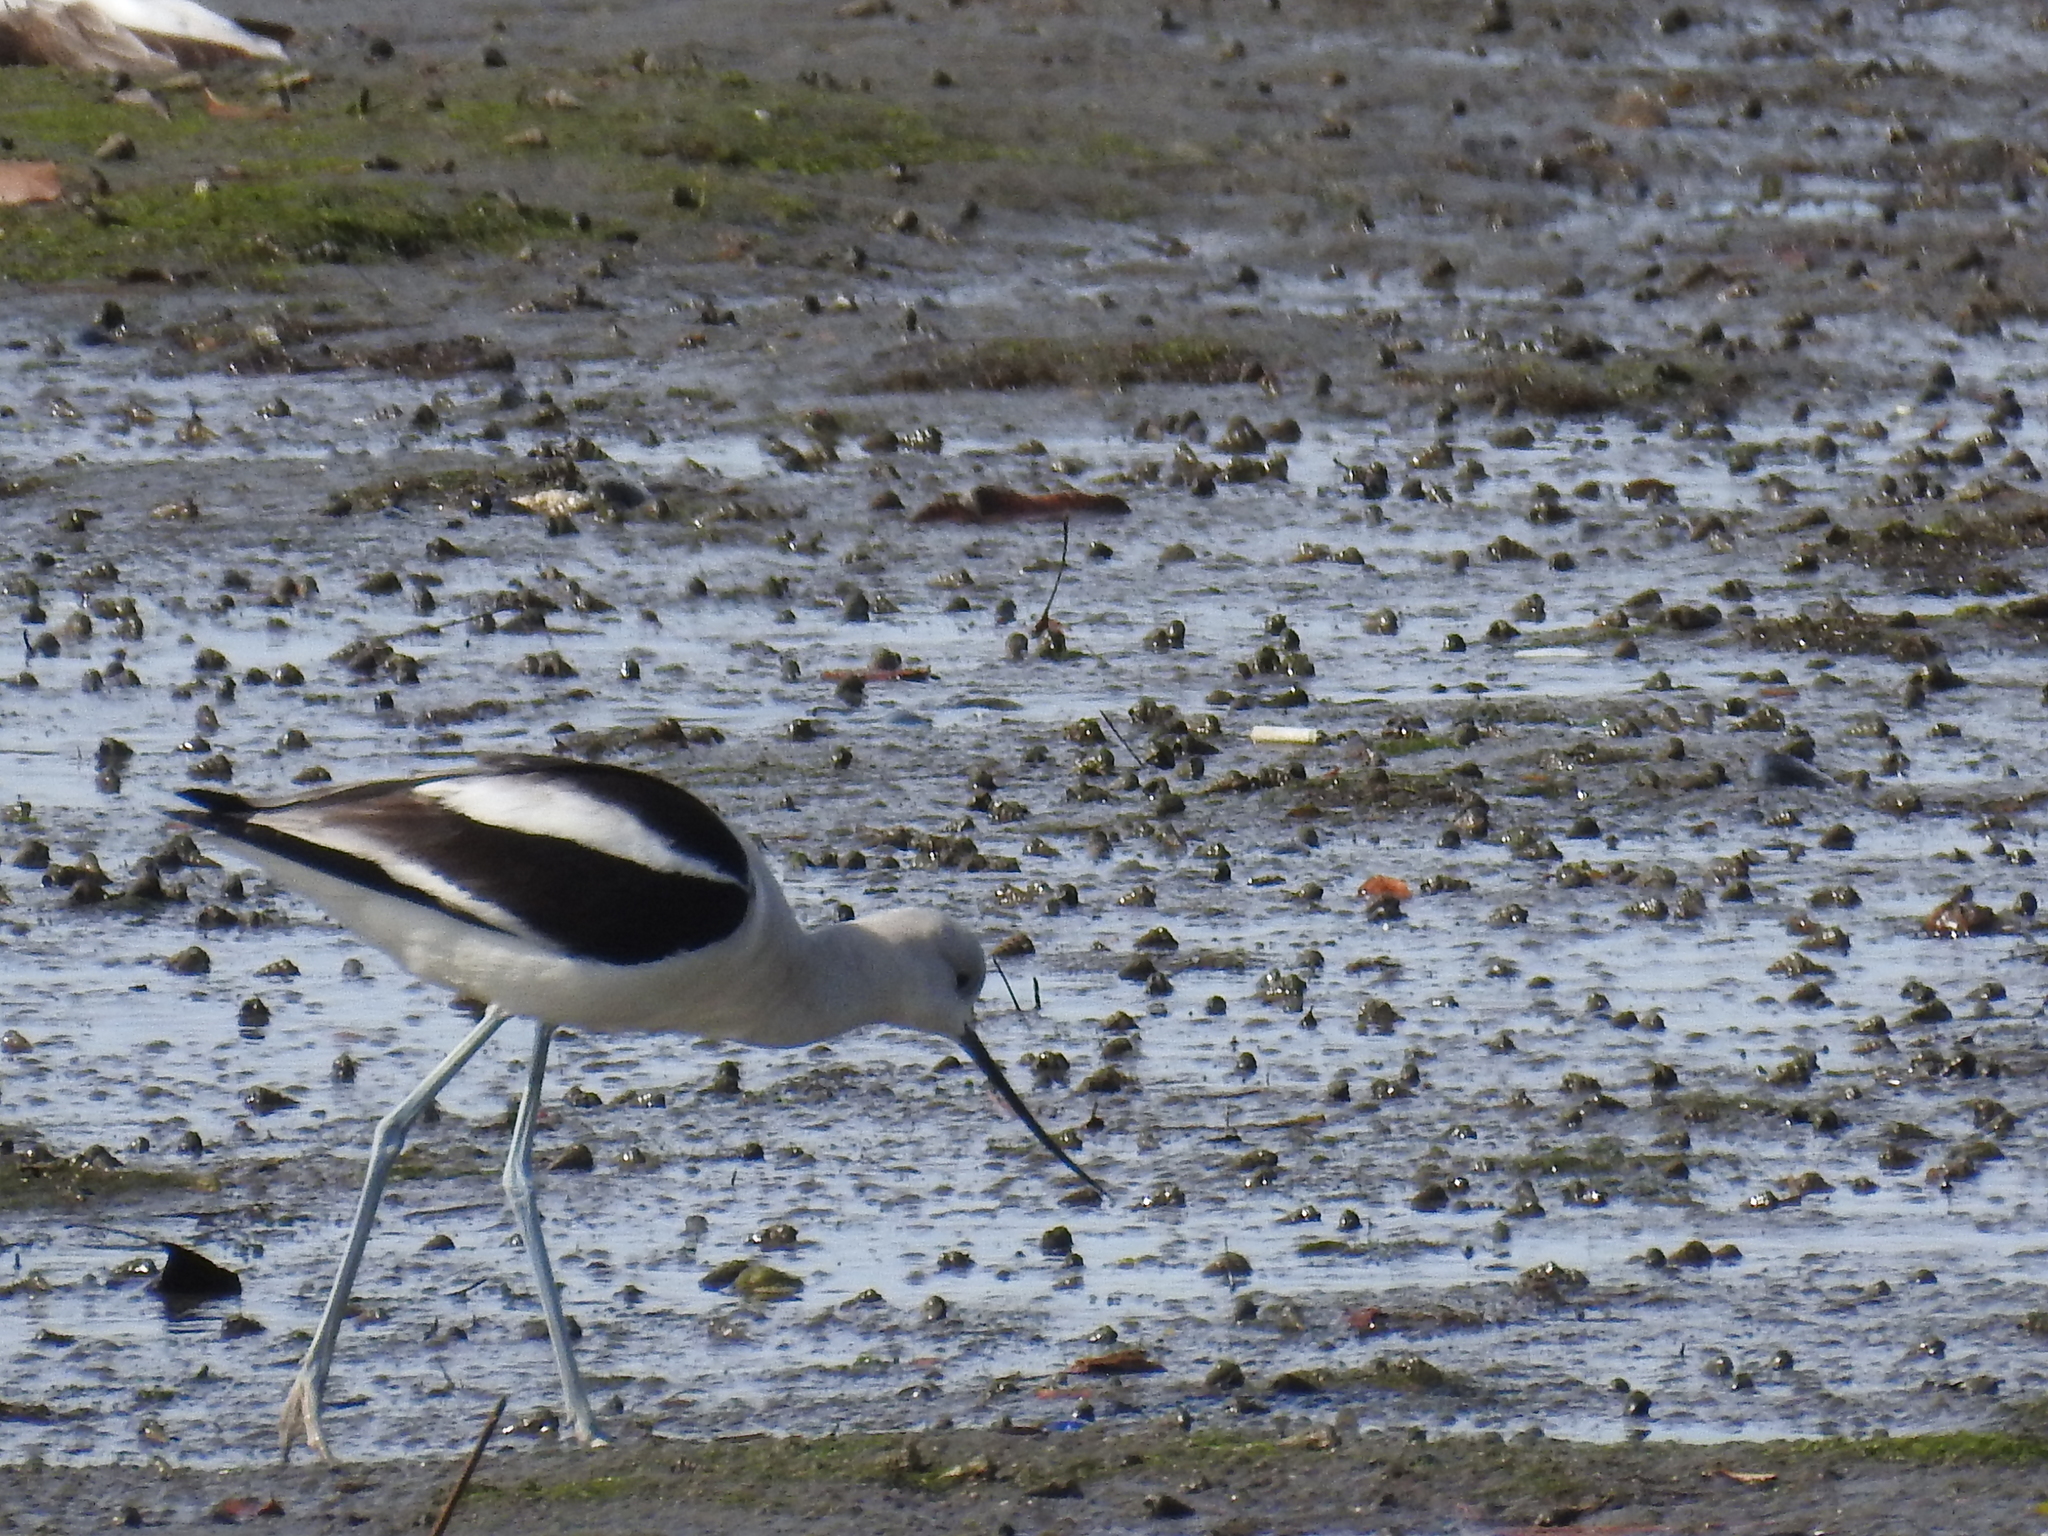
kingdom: Animalia
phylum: Chordata
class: Aves
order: Charadriiformes
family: Recurvirostridae
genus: Recurvirostra
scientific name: Recurvirostra americana
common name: American avocet
